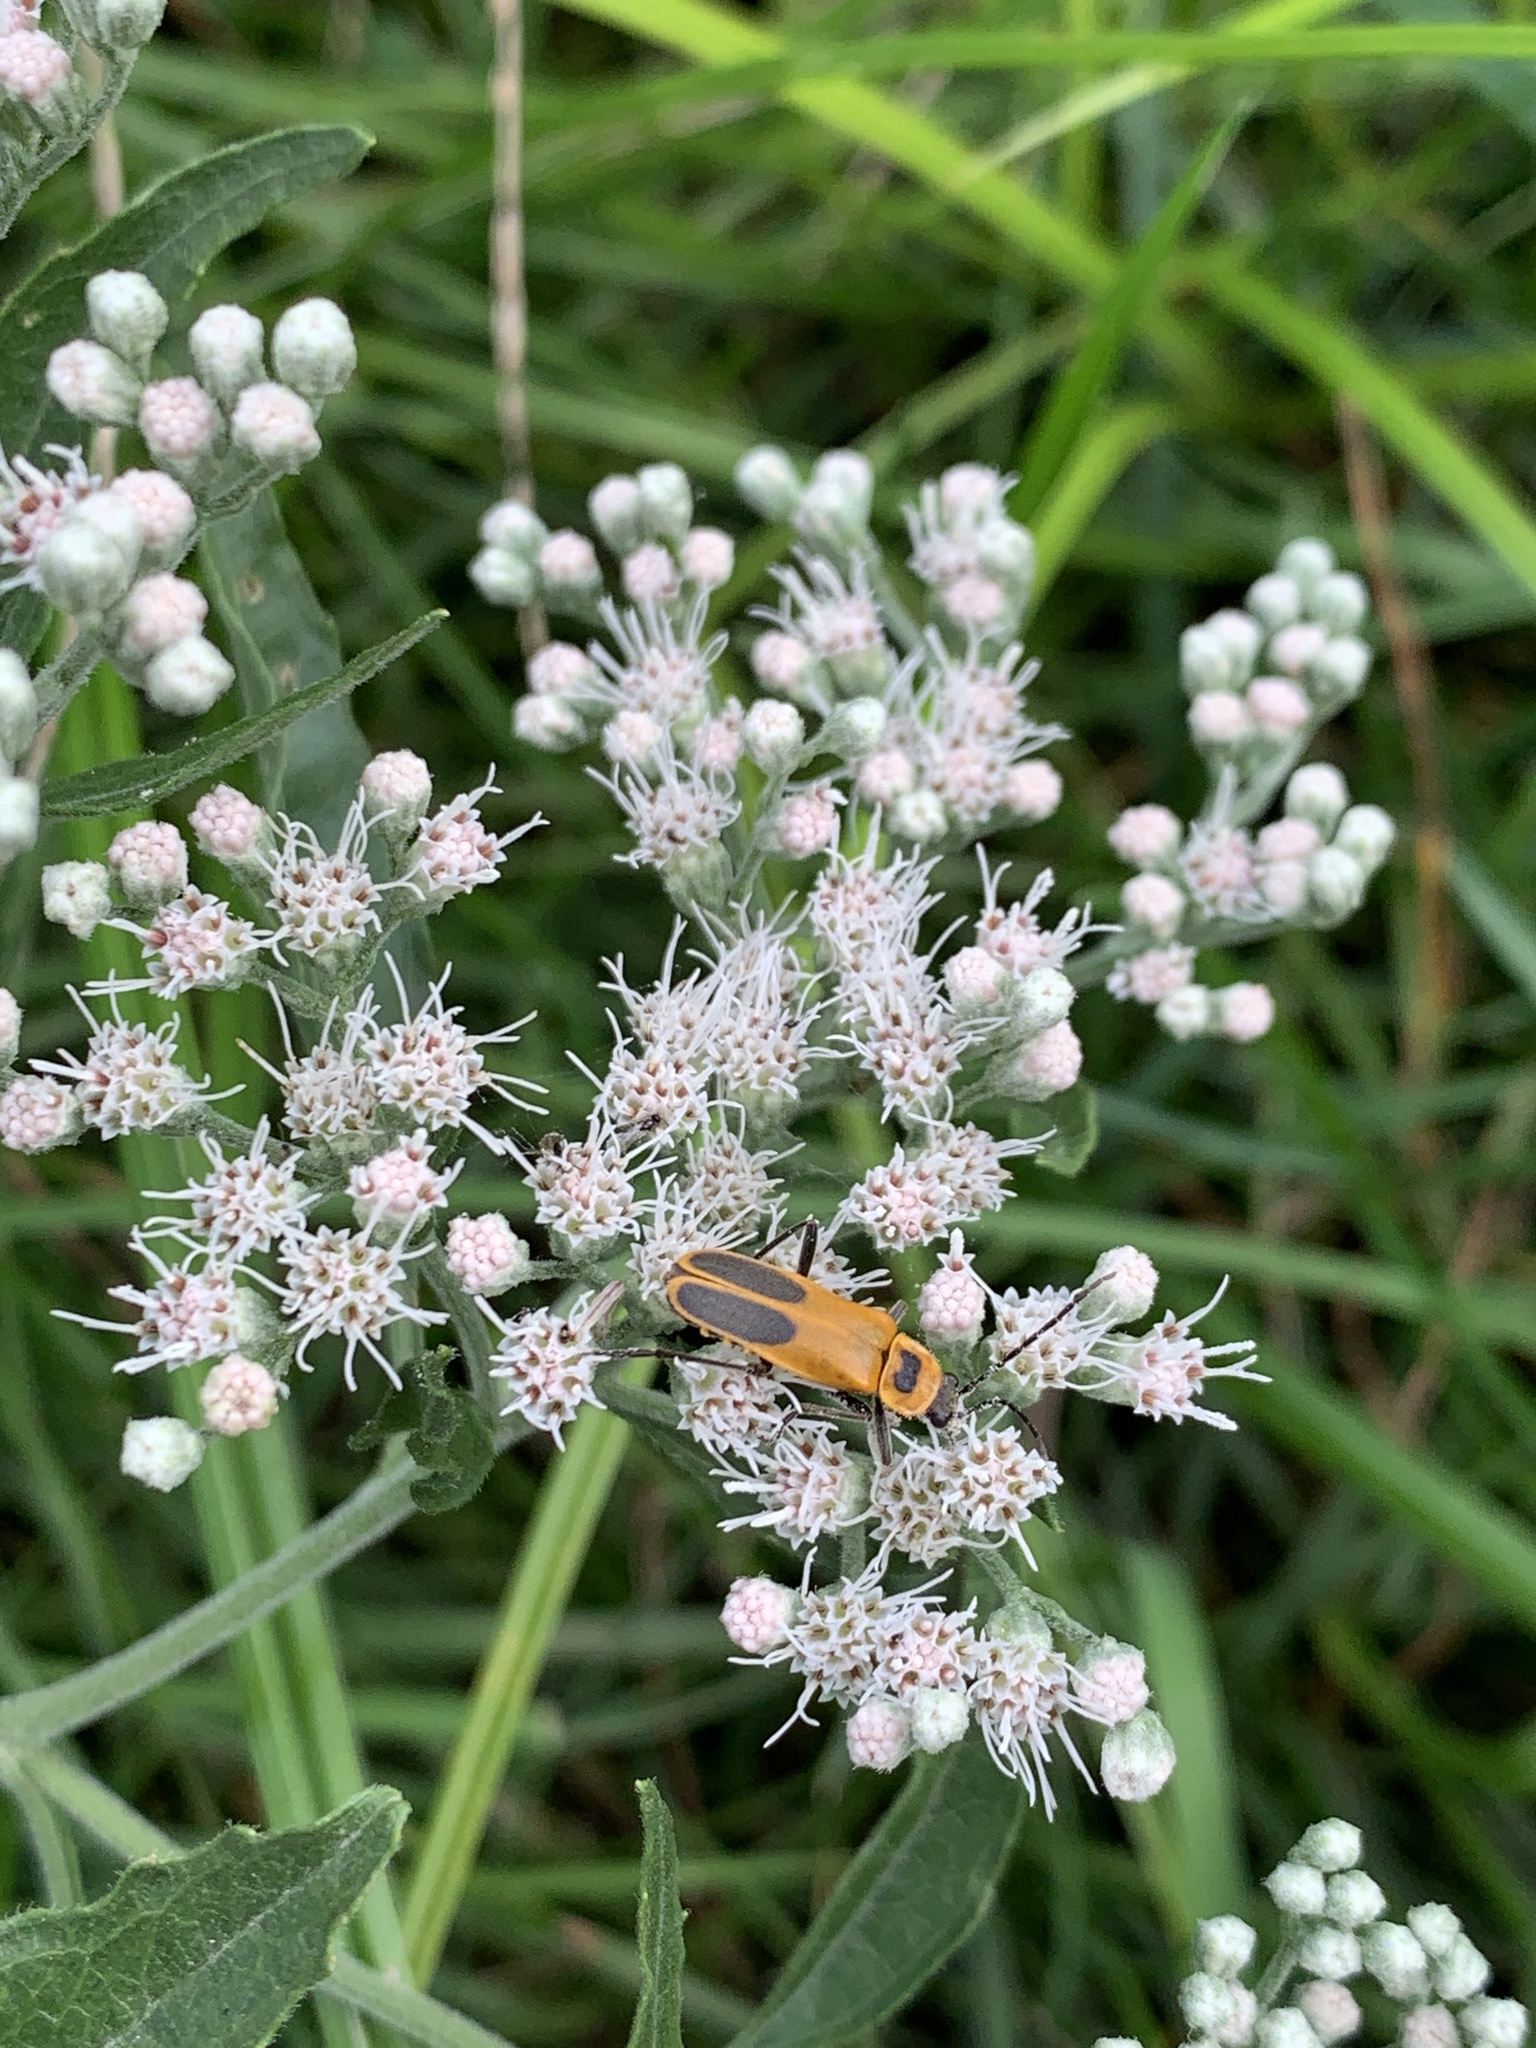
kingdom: Animalia
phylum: Arthropoda
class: Insecta
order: Coleoptera
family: Cantharidae
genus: Chauliognathus
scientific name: Chauliognathus pensylvanicus
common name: Goldenrod soldier beetle
